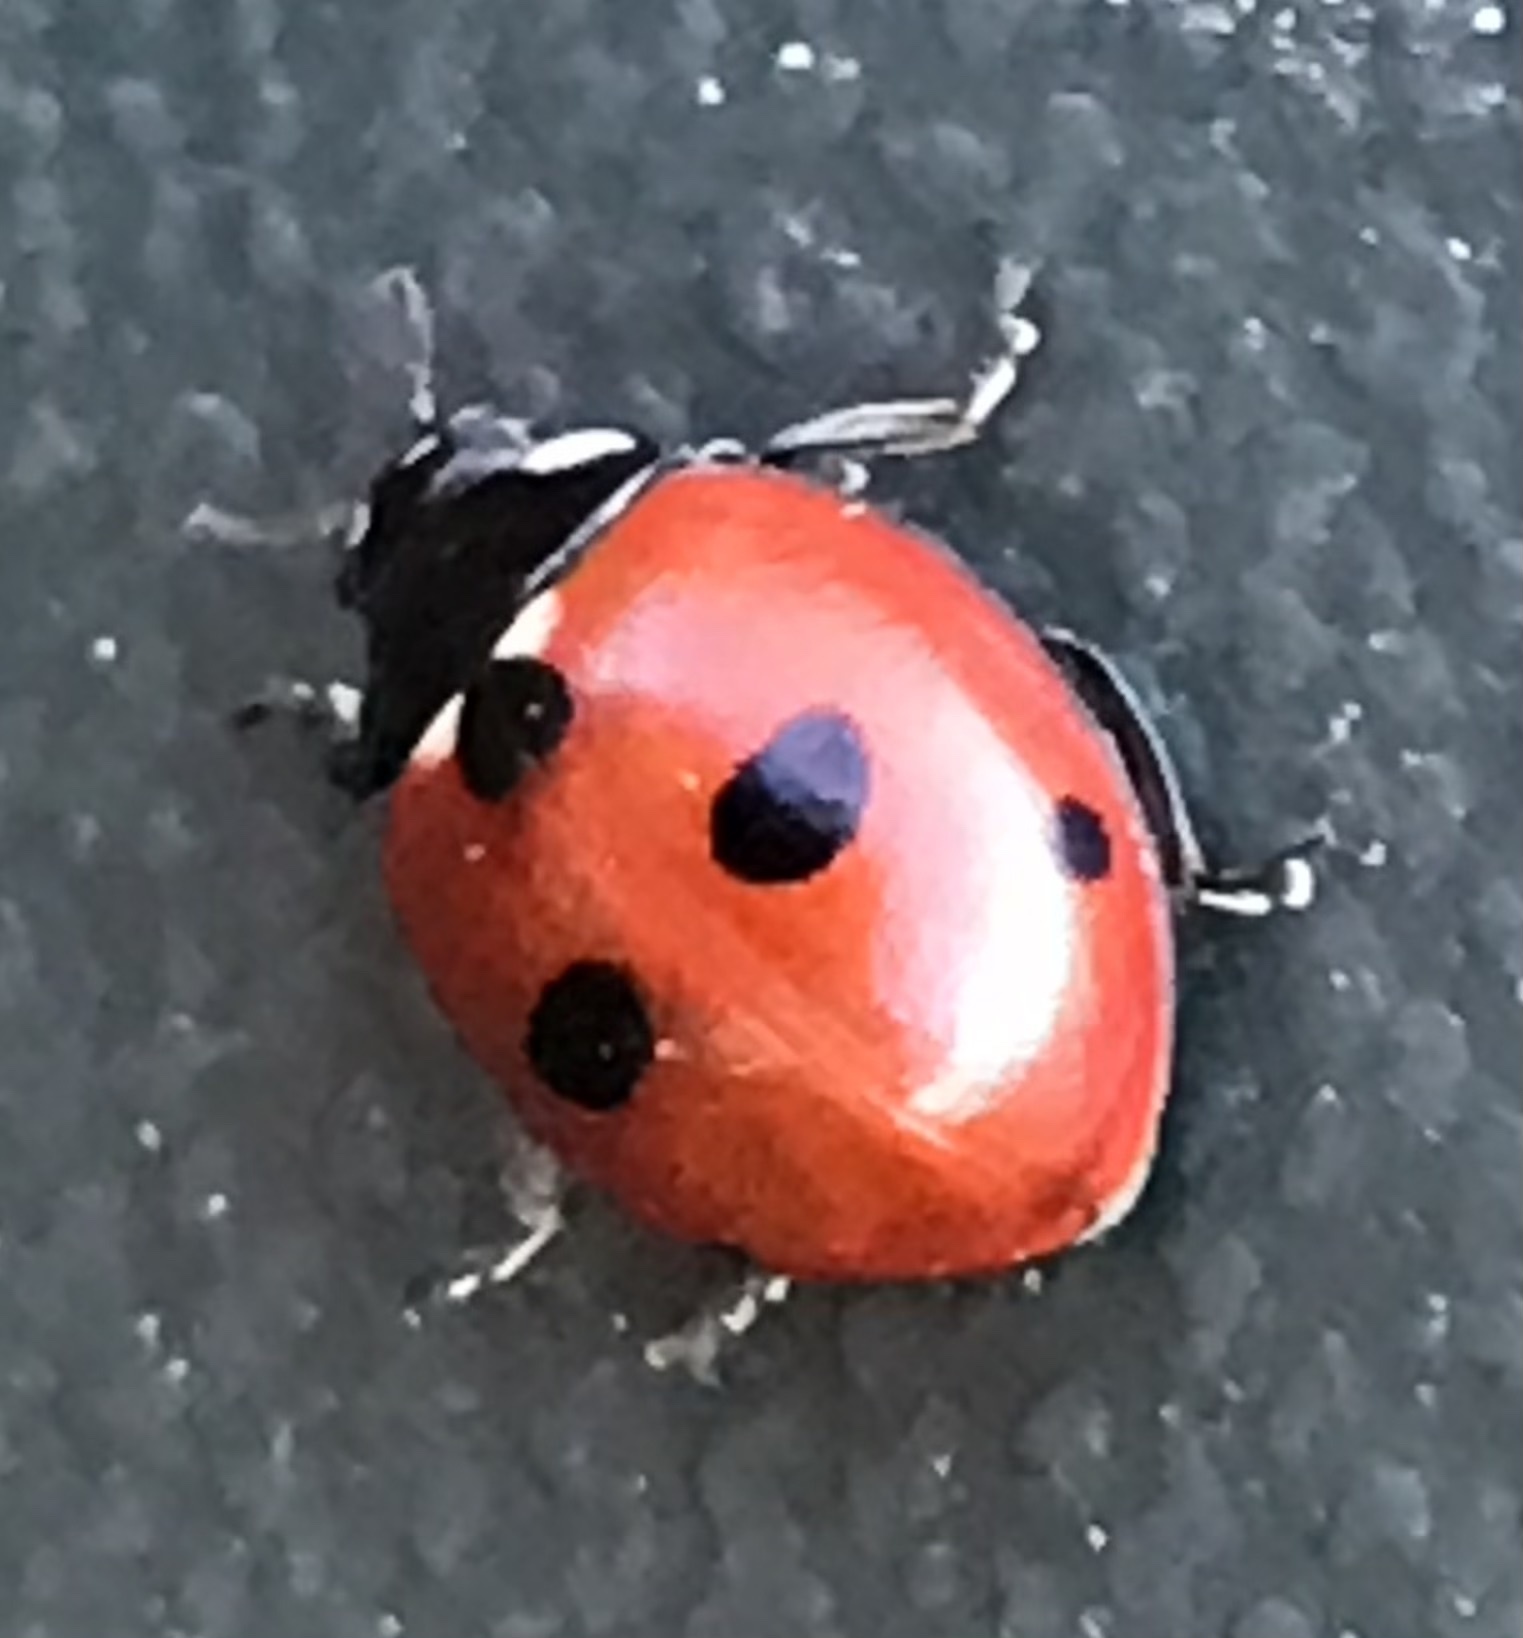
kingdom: Animalia
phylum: Arthropoda
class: Insecta
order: Coleoptera
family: Coccinellidae
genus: Coccinella
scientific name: Coccinella quinquepunctata
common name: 5-spot ladybird
